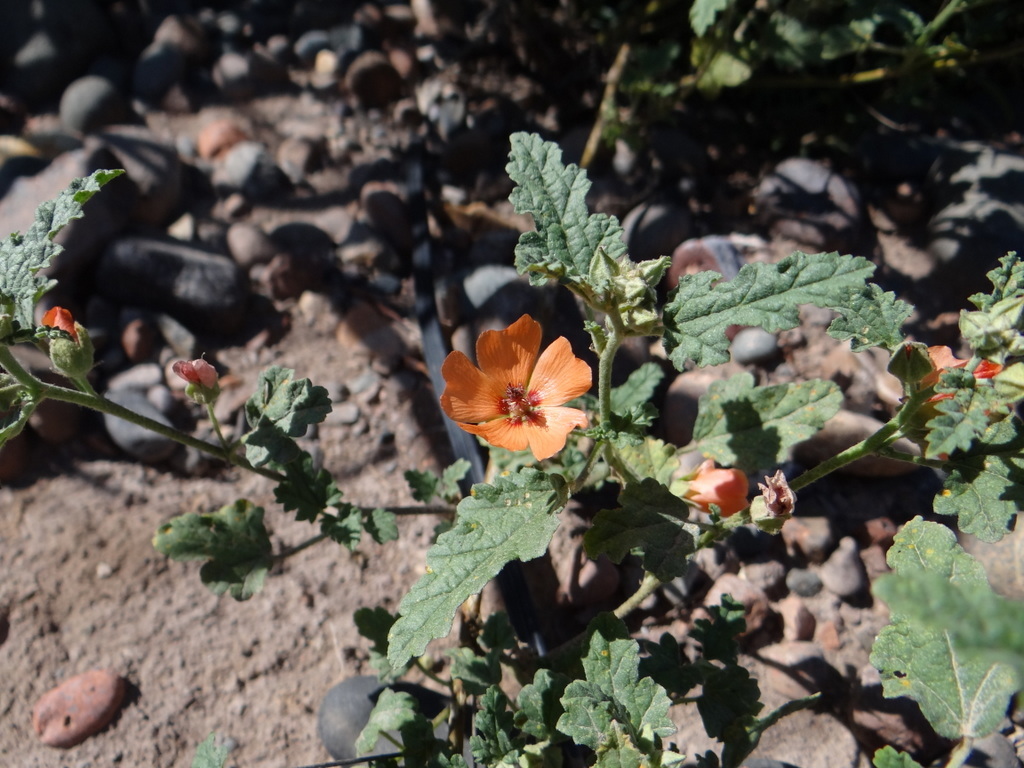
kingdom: Plantae
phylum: Tracheophyta
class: Magnoliopsida
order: Malvales
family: Malvaceae
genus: Sphaeralcea
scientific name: Sphaeralcea miniata
